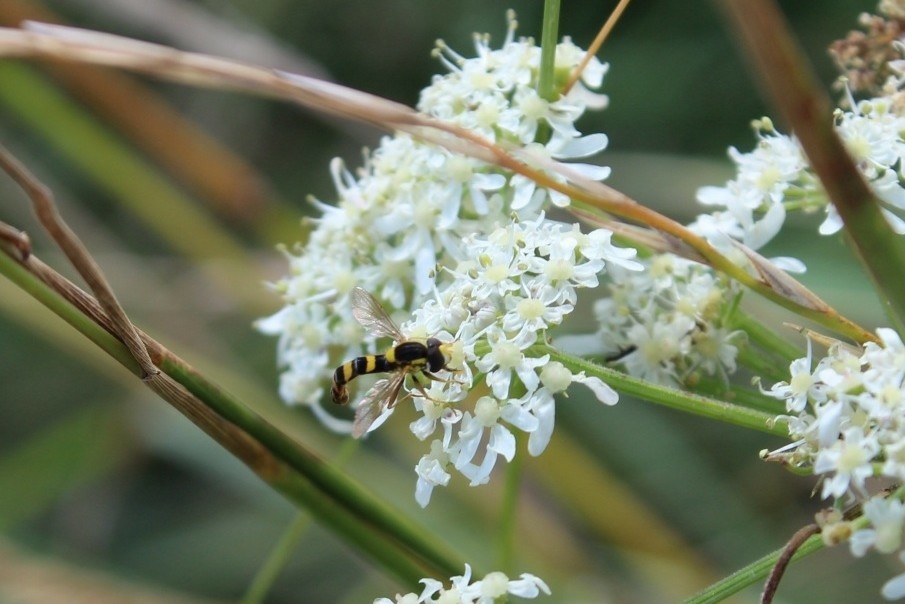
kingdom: Animalia
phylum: Arthropoda
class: Insecta
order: Diptera
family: Syrphidae
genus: Sphaerophoria
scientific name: Sphaerophoria scripta
